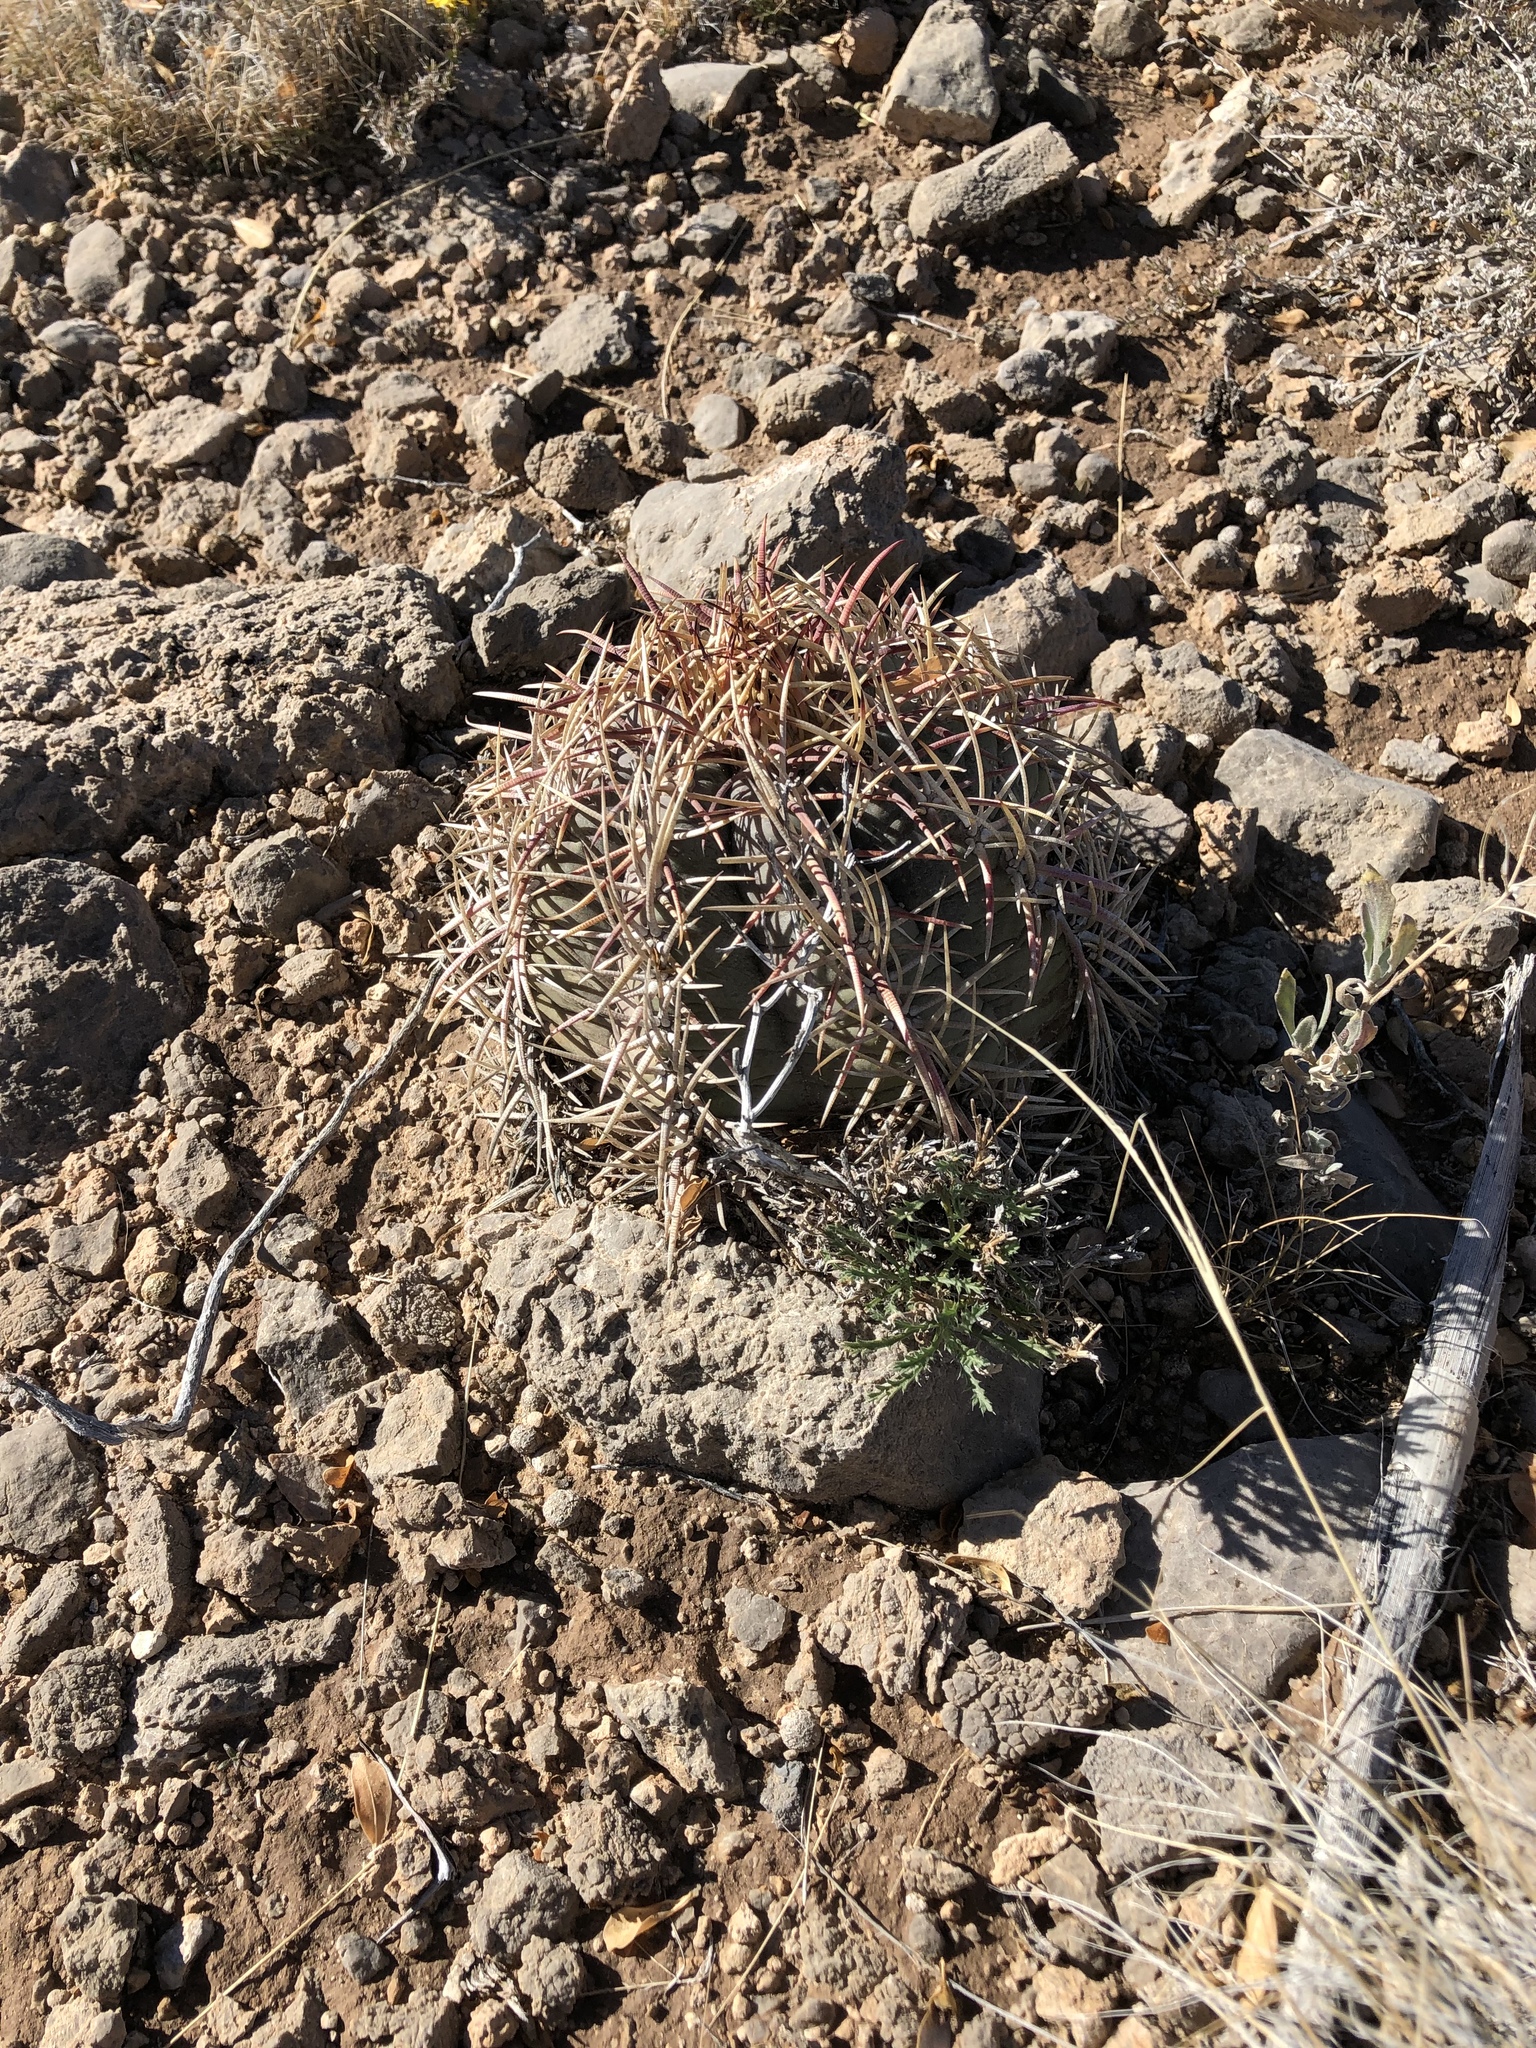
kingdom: Plantae
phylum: Tracheophyta
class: Magnoliopsida
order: Caryophyllales
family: Cactaceae
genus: Echinocactus
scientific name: Echinocactus horizonthalonius
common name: Devilshead
